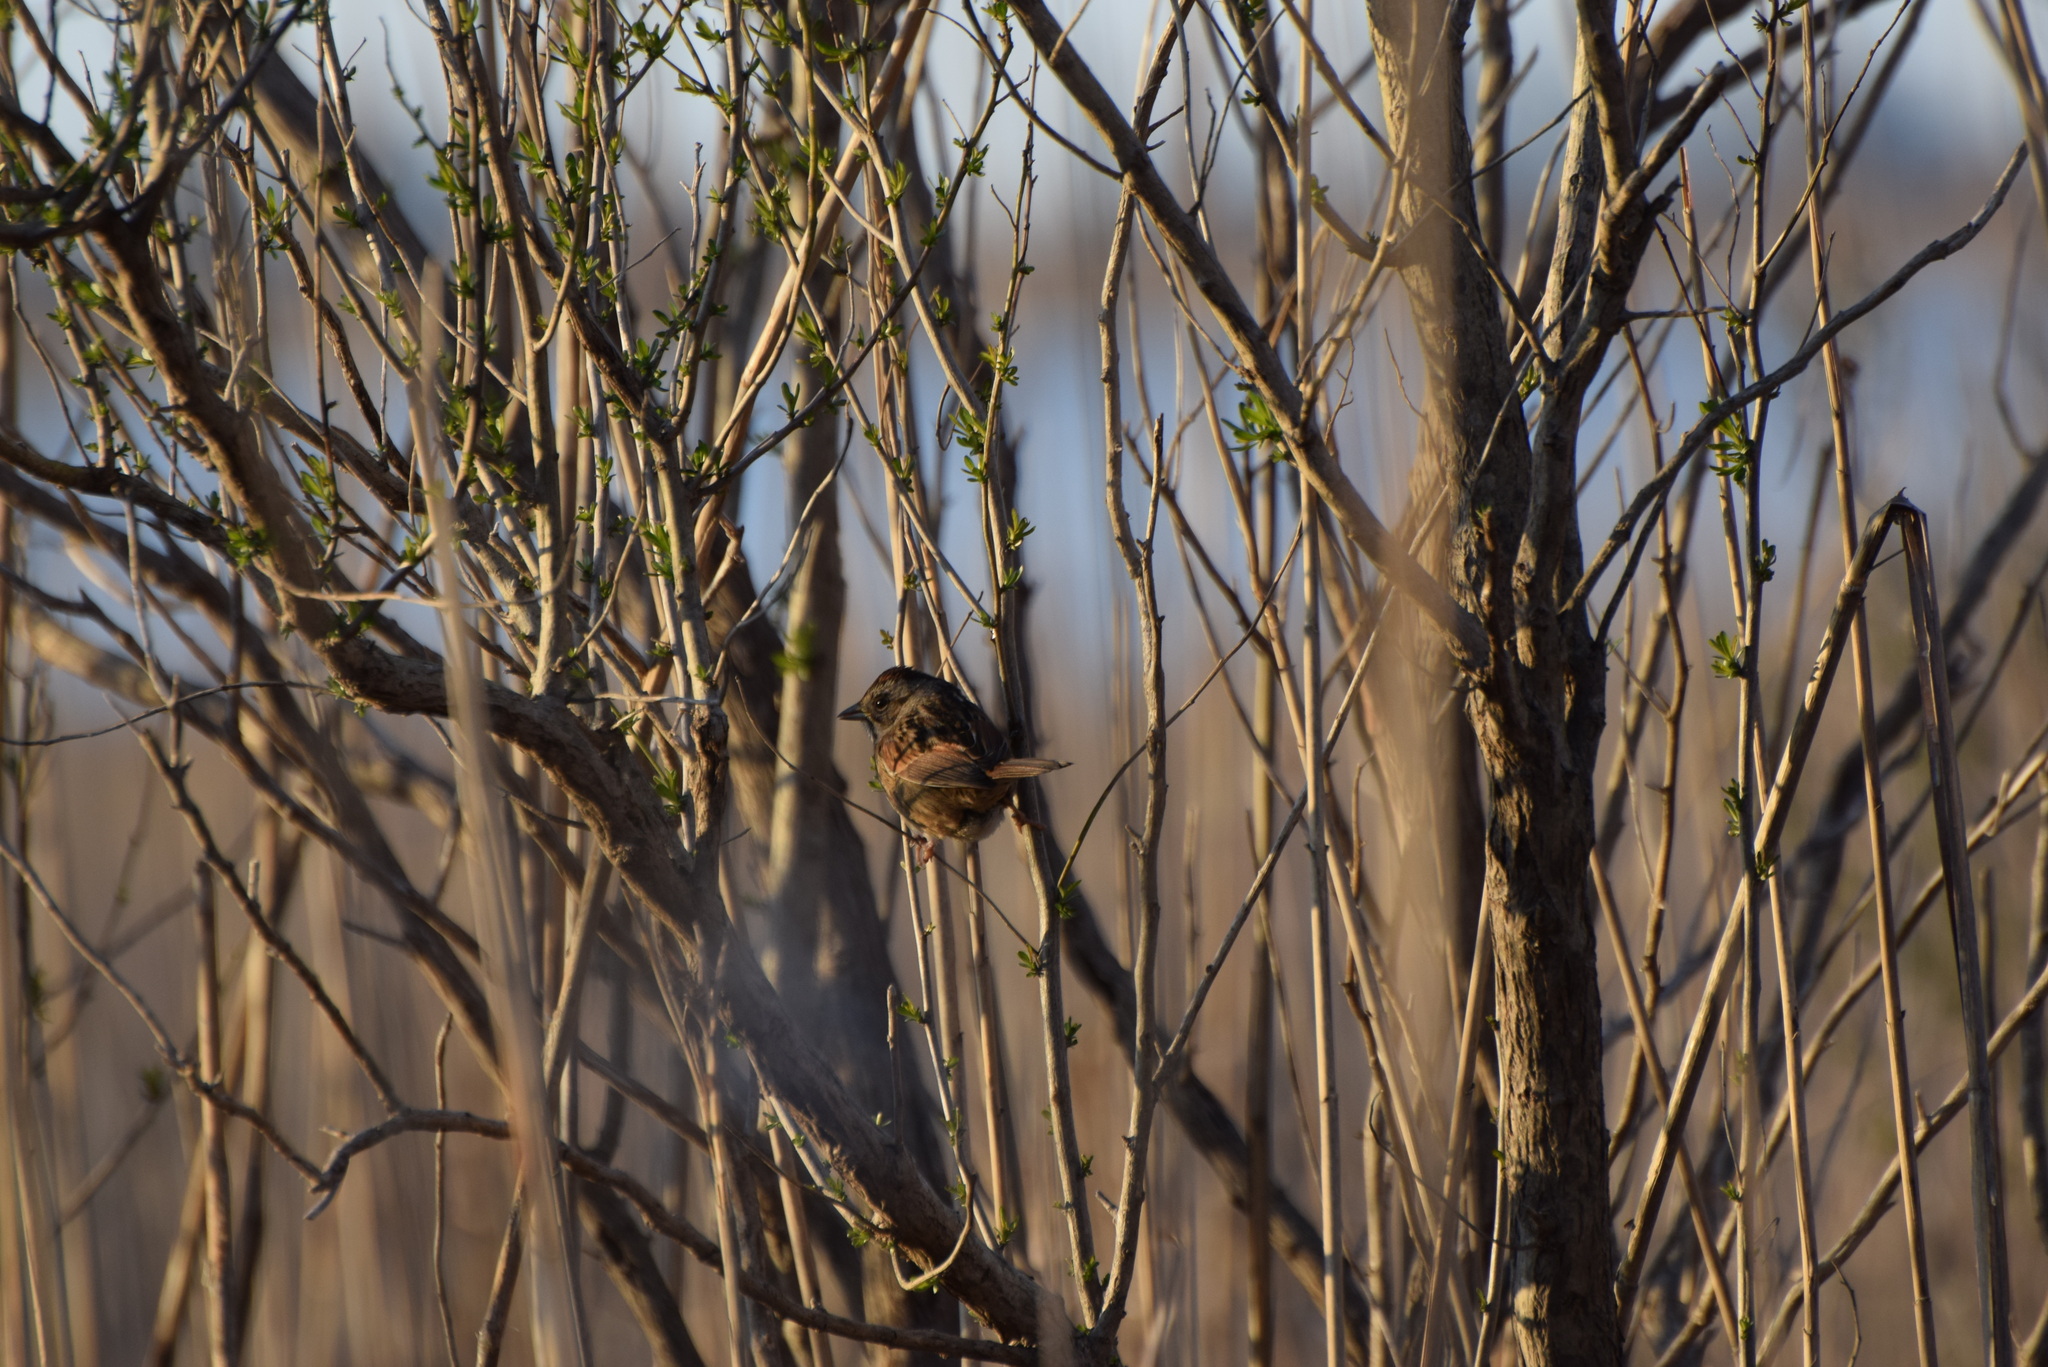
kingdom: Animalia
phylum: Chordata
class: Aves
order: Passeriformes
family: Passerellidae
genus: Melospiza
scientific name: Melospiza georgiana
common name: Swamp sparrow
